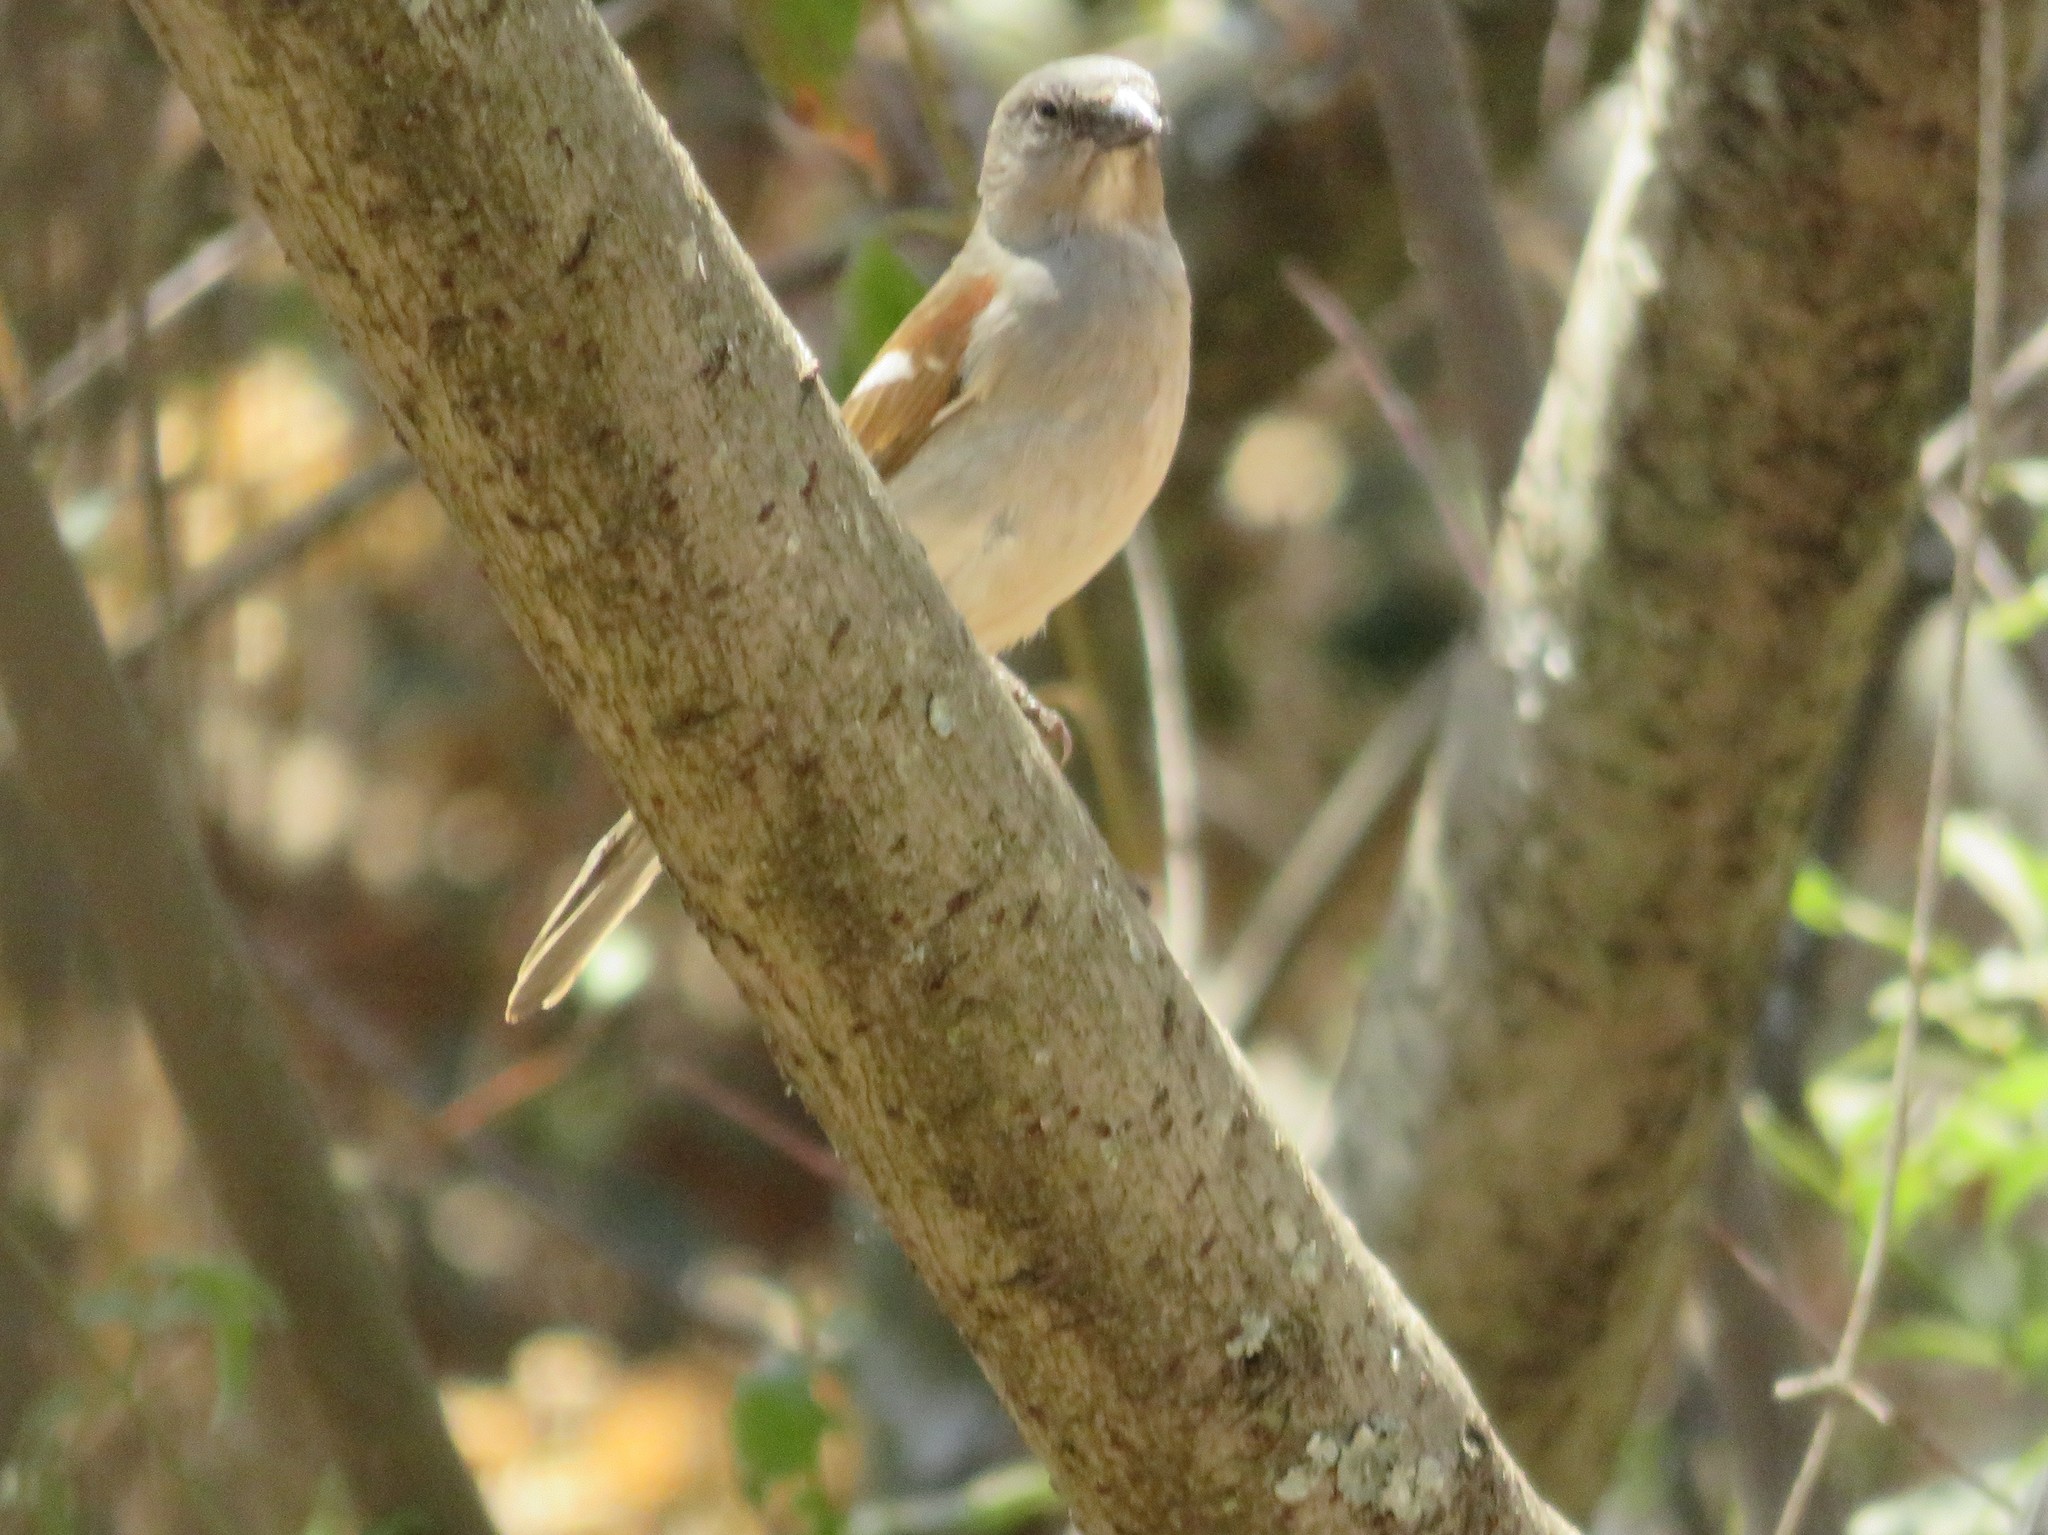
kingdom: Animalia
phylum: Chordata
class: Aves
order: Passeriformes
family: Passeridae
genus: Passer
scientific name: Passer diffusus
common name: Southern grey-headed sparrow
